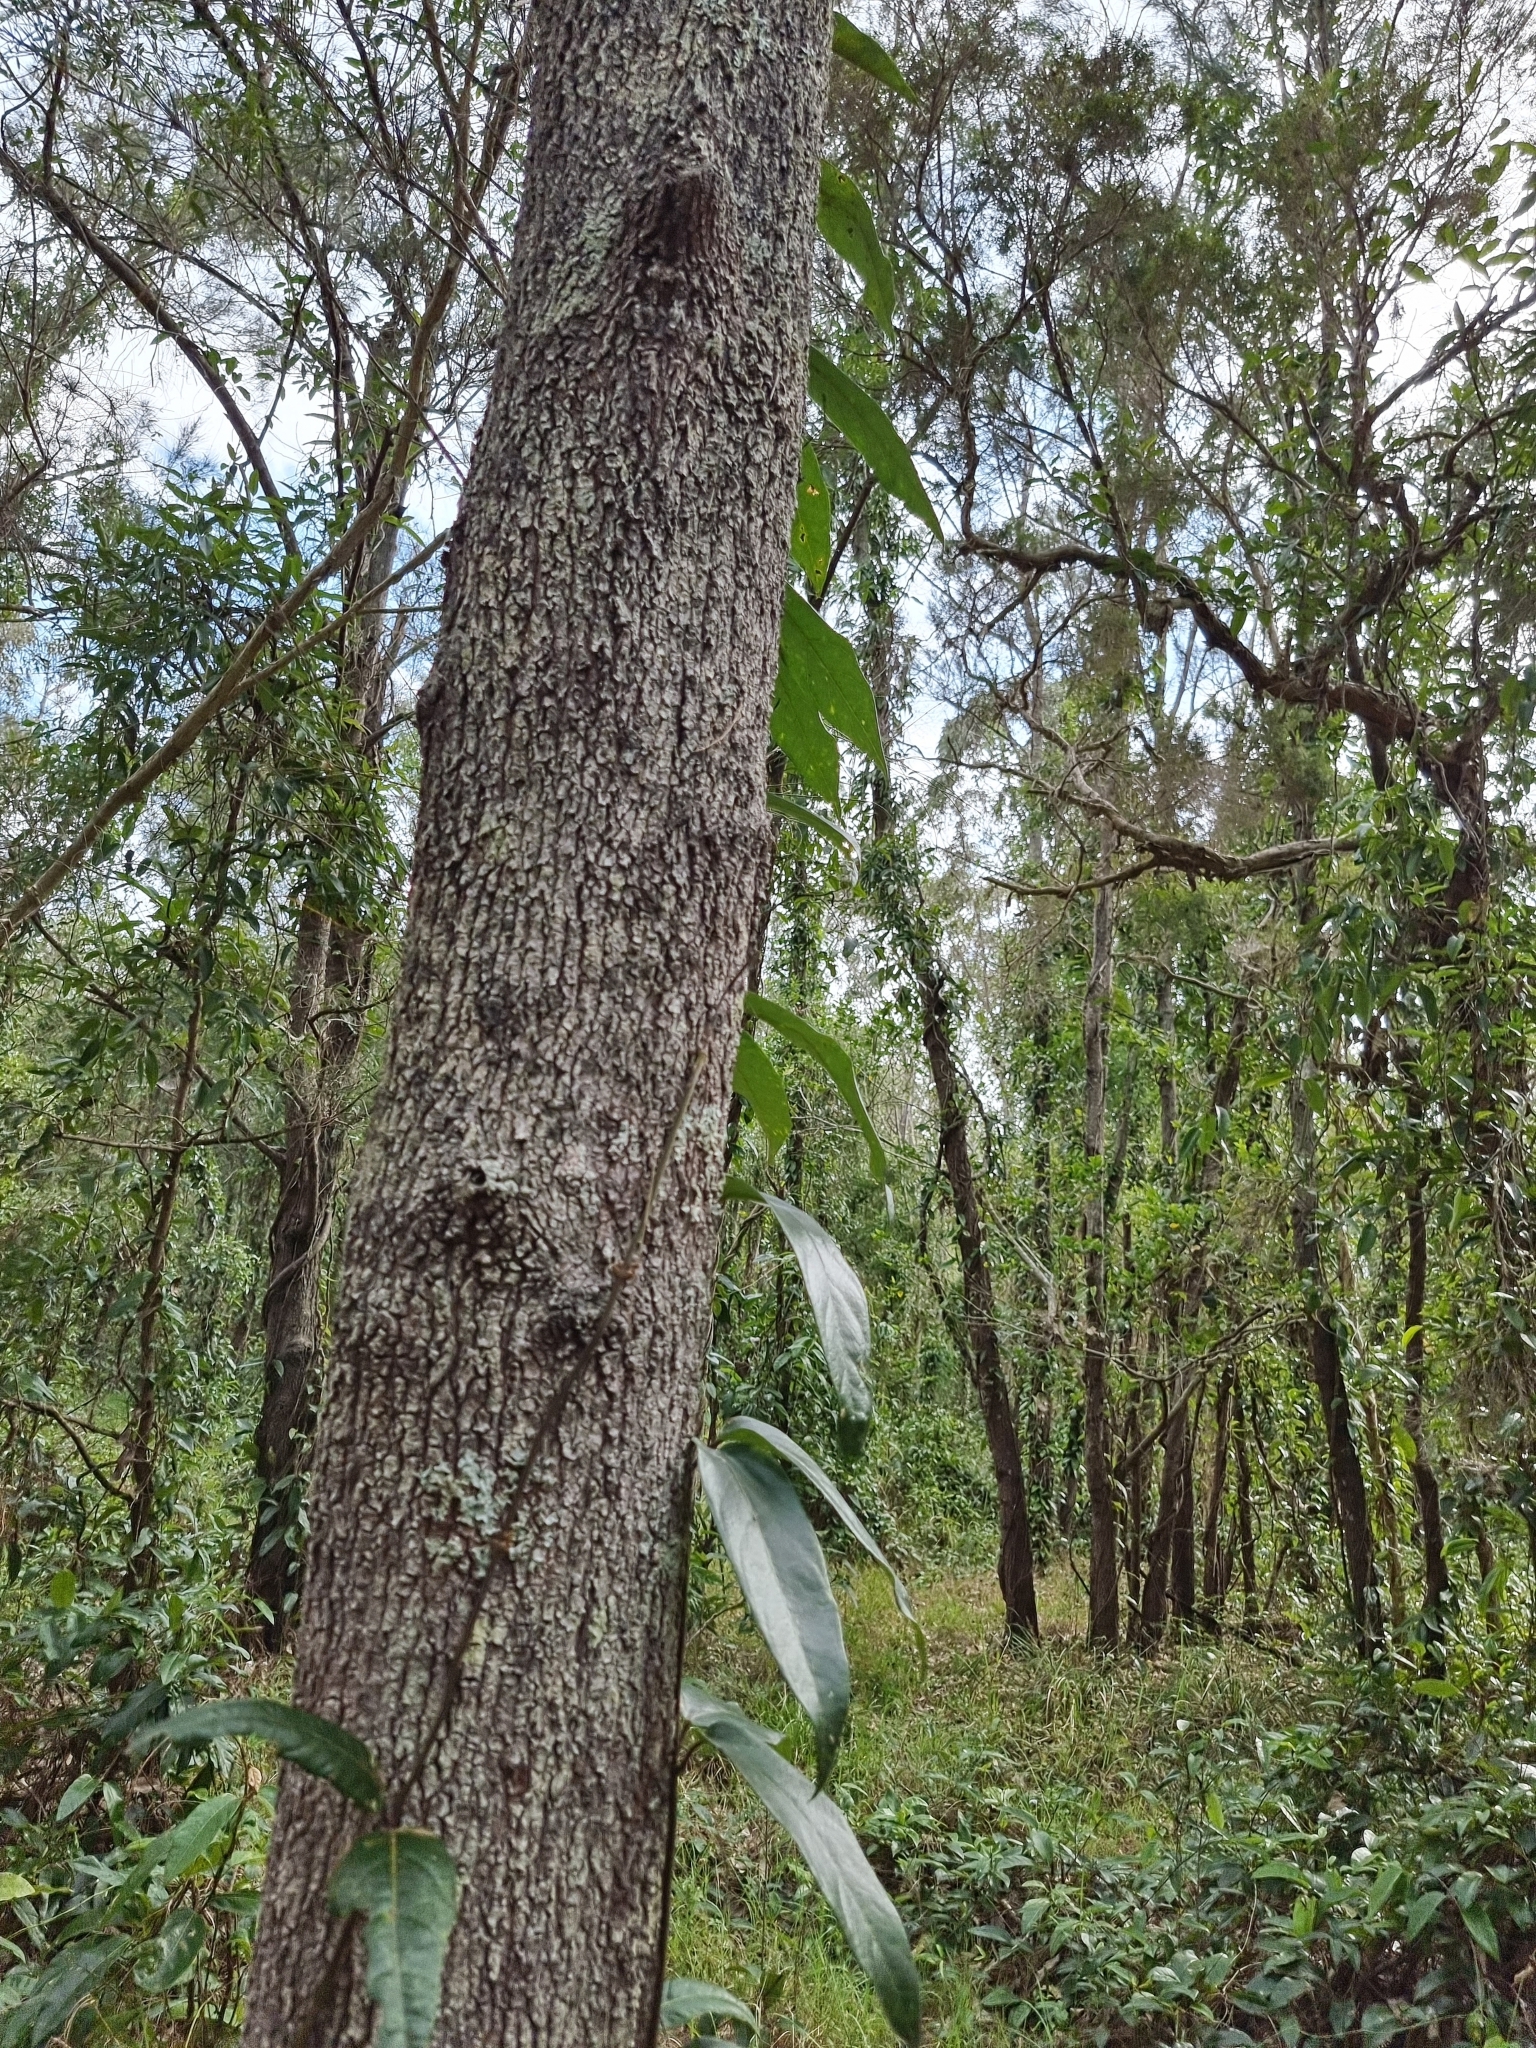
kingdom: Plantae
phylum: Tracheophyta
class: Magnoliopsida
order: Gentianales
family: Apocynaceae
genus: Parsonsia
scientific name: Parsonsia straminea
